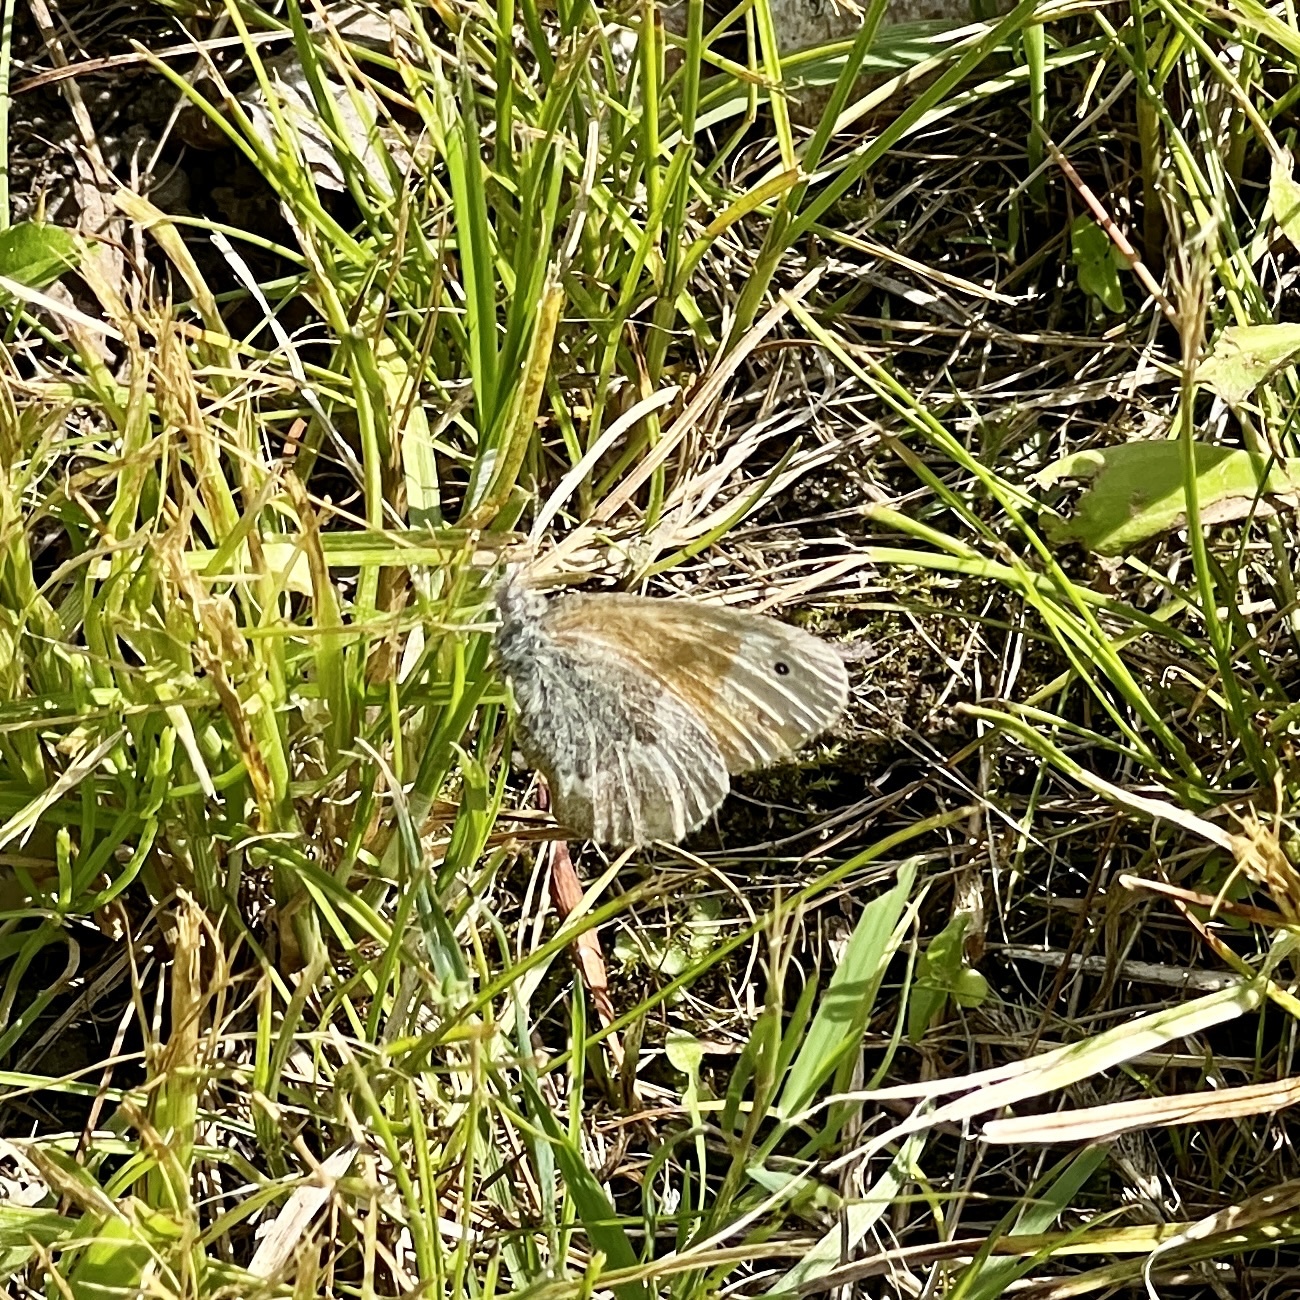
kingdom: Animalia
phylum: Arthropoda
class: Insecta
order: Lepidoptera
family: Nymphalidae
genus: Coenonympha
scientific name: Coenonympha california
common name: Common ringlet
